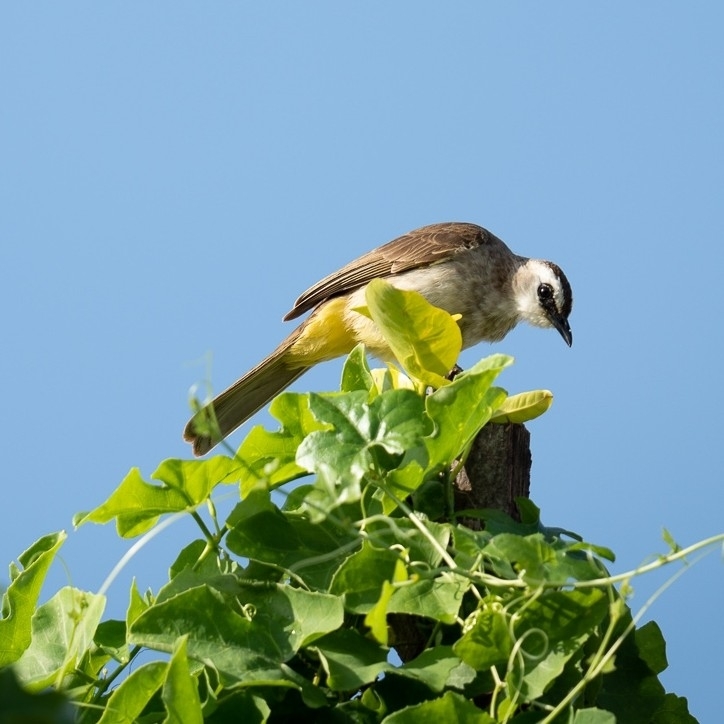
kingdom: Animalia
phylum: Chordata
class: Aves
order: Passeriformes
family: Pycnonotidae
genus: Pycnonotus
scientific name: Pycnonotus goiavier
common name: Yellow-vented bulbul
